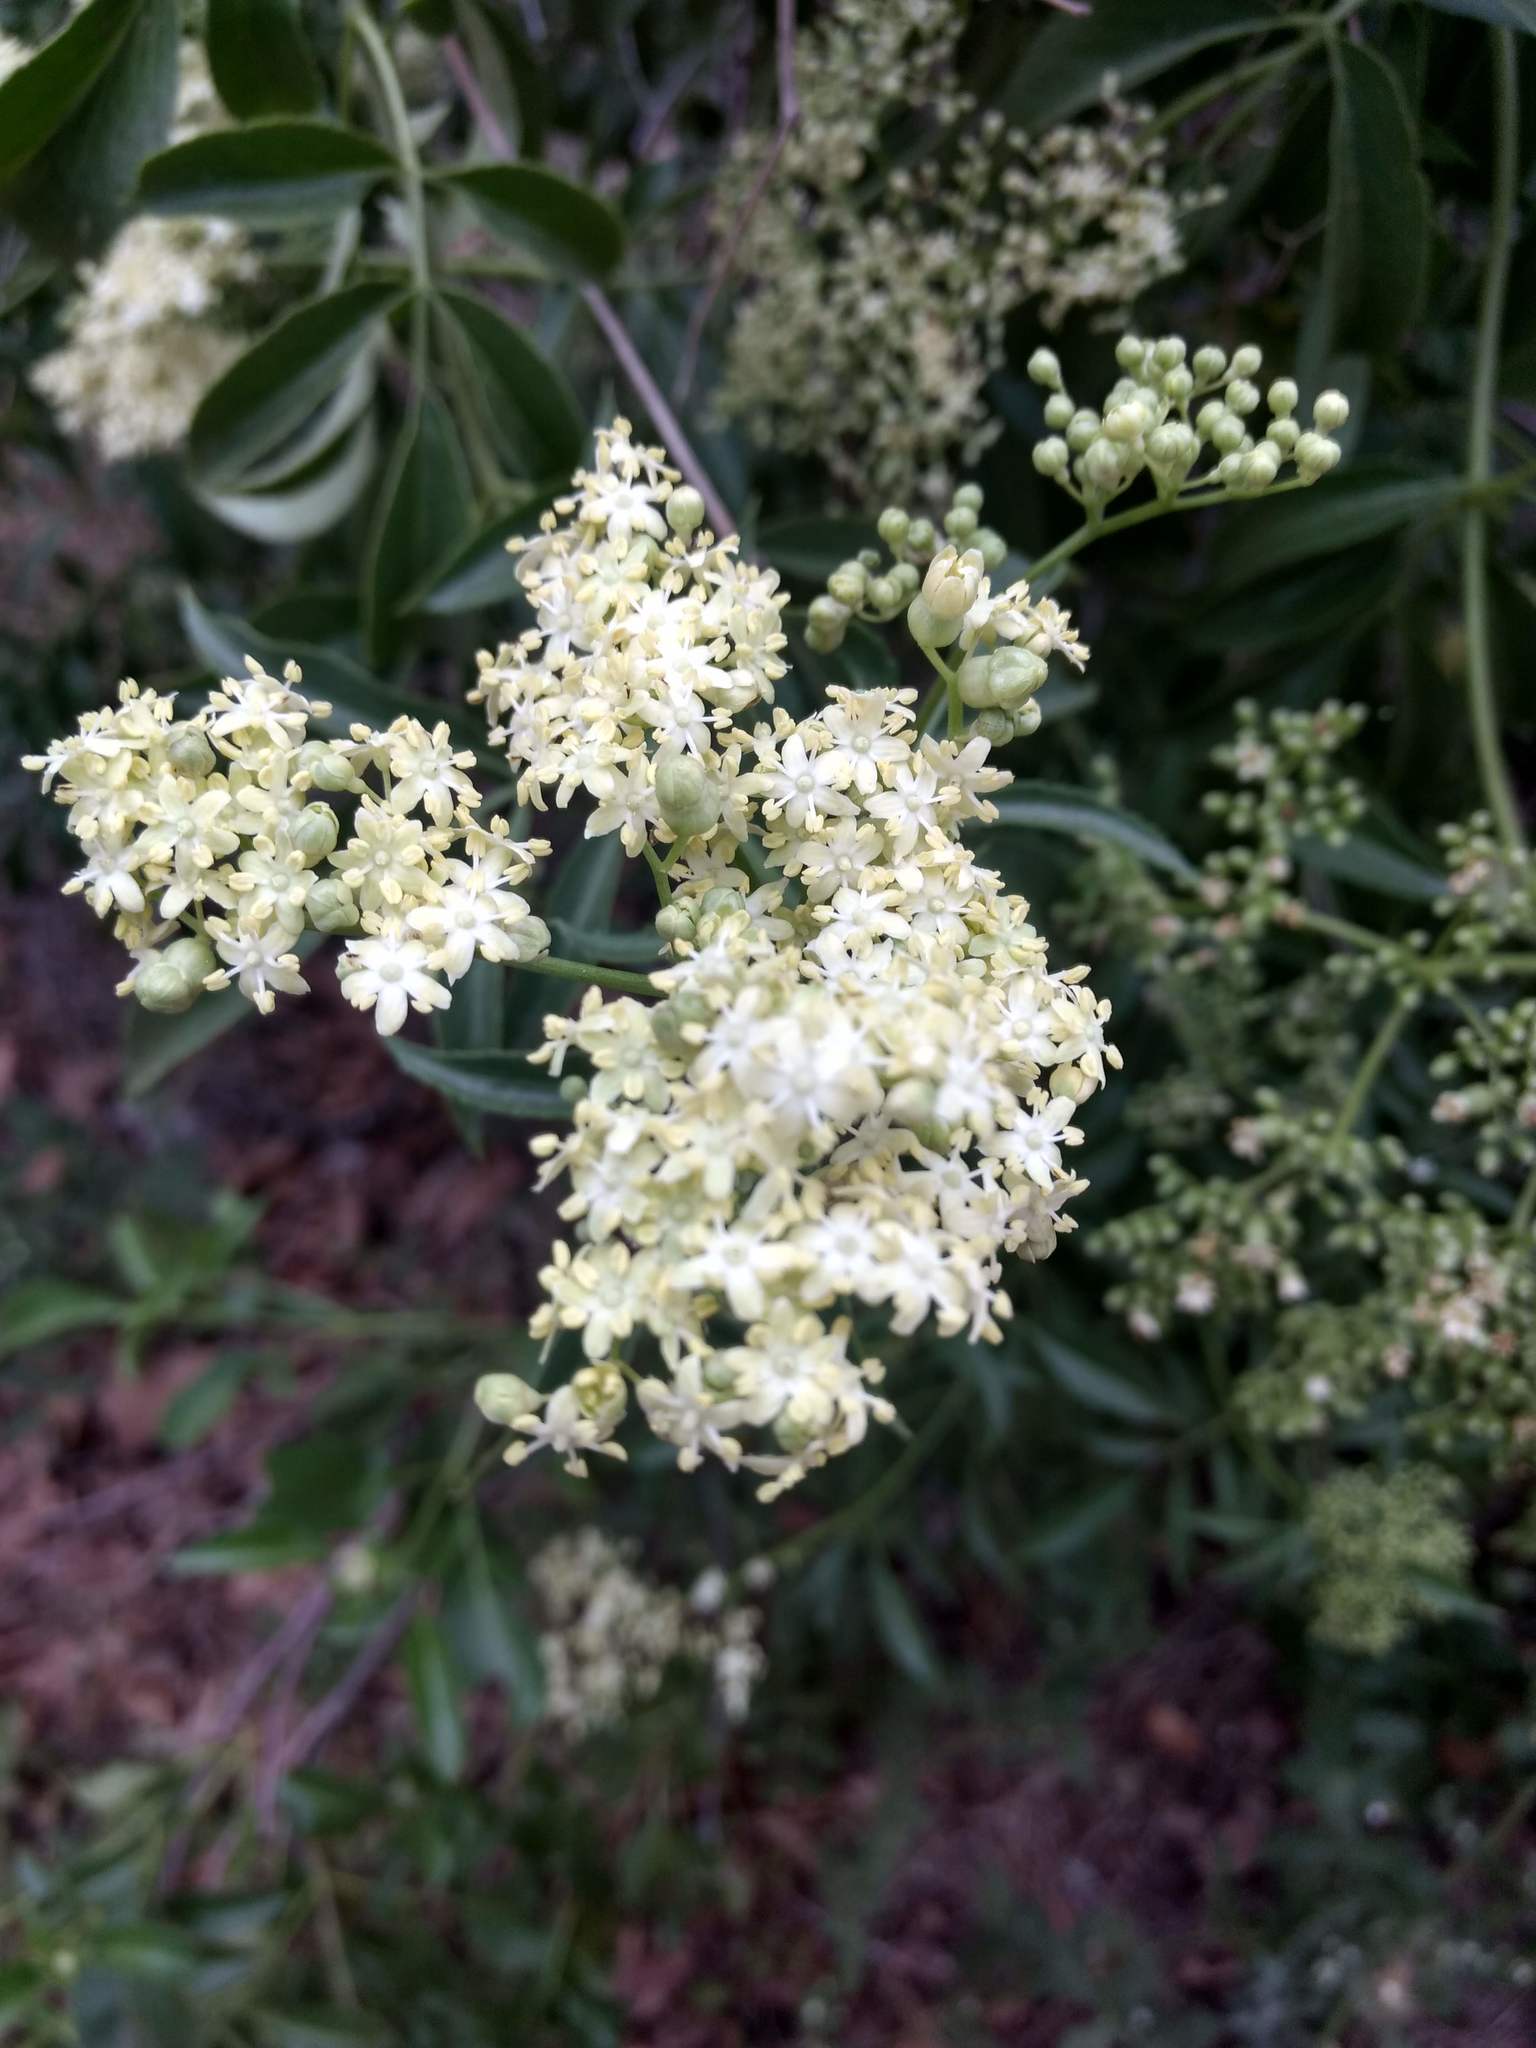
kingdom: Plantae
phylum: Tracheophyta
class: Magnoliopsida
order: Dipsacales
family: Viburnaceae
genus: Sambucus
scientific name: Sambucus cerulea
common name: Blue elder
